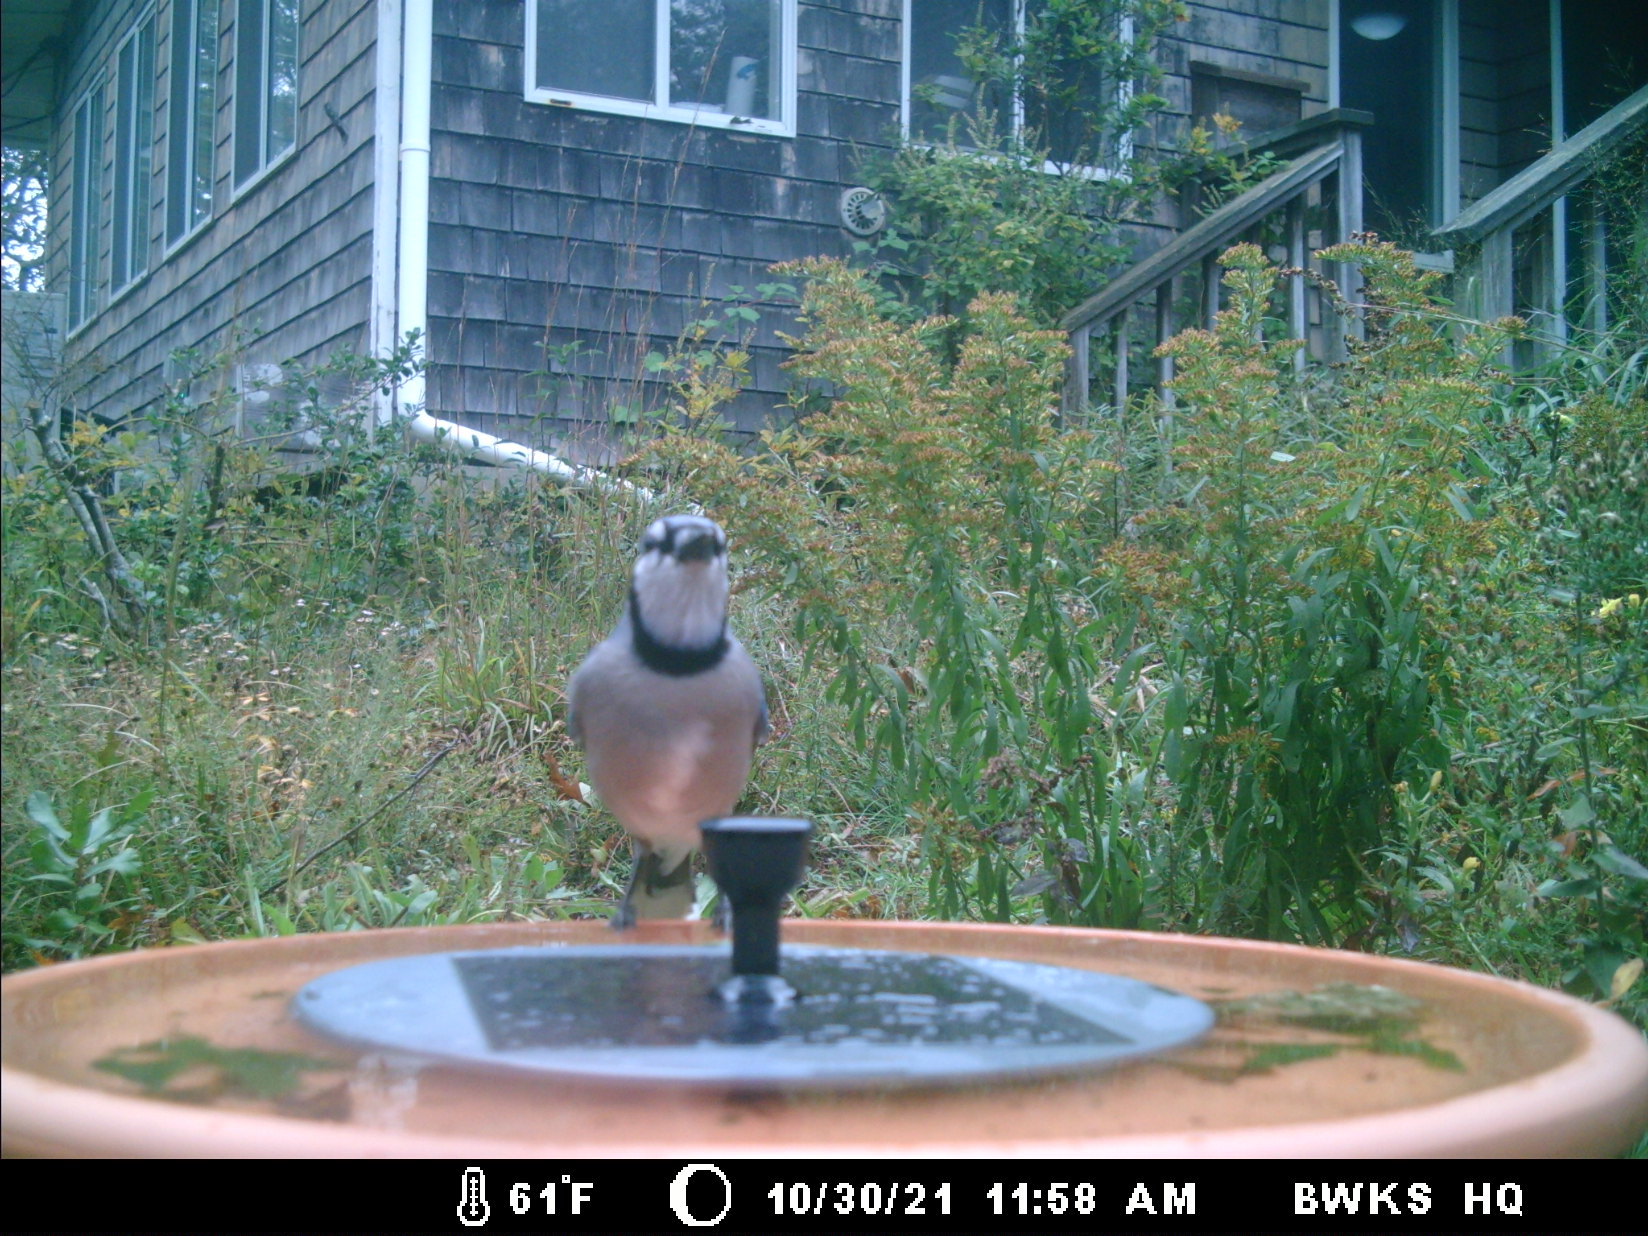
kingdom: Animalia
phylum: Chordata
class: Aves
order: Passeriformes
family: Corvidae
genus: Cyanocitta
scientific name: Cyanocitta cristata
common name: Blue jay
